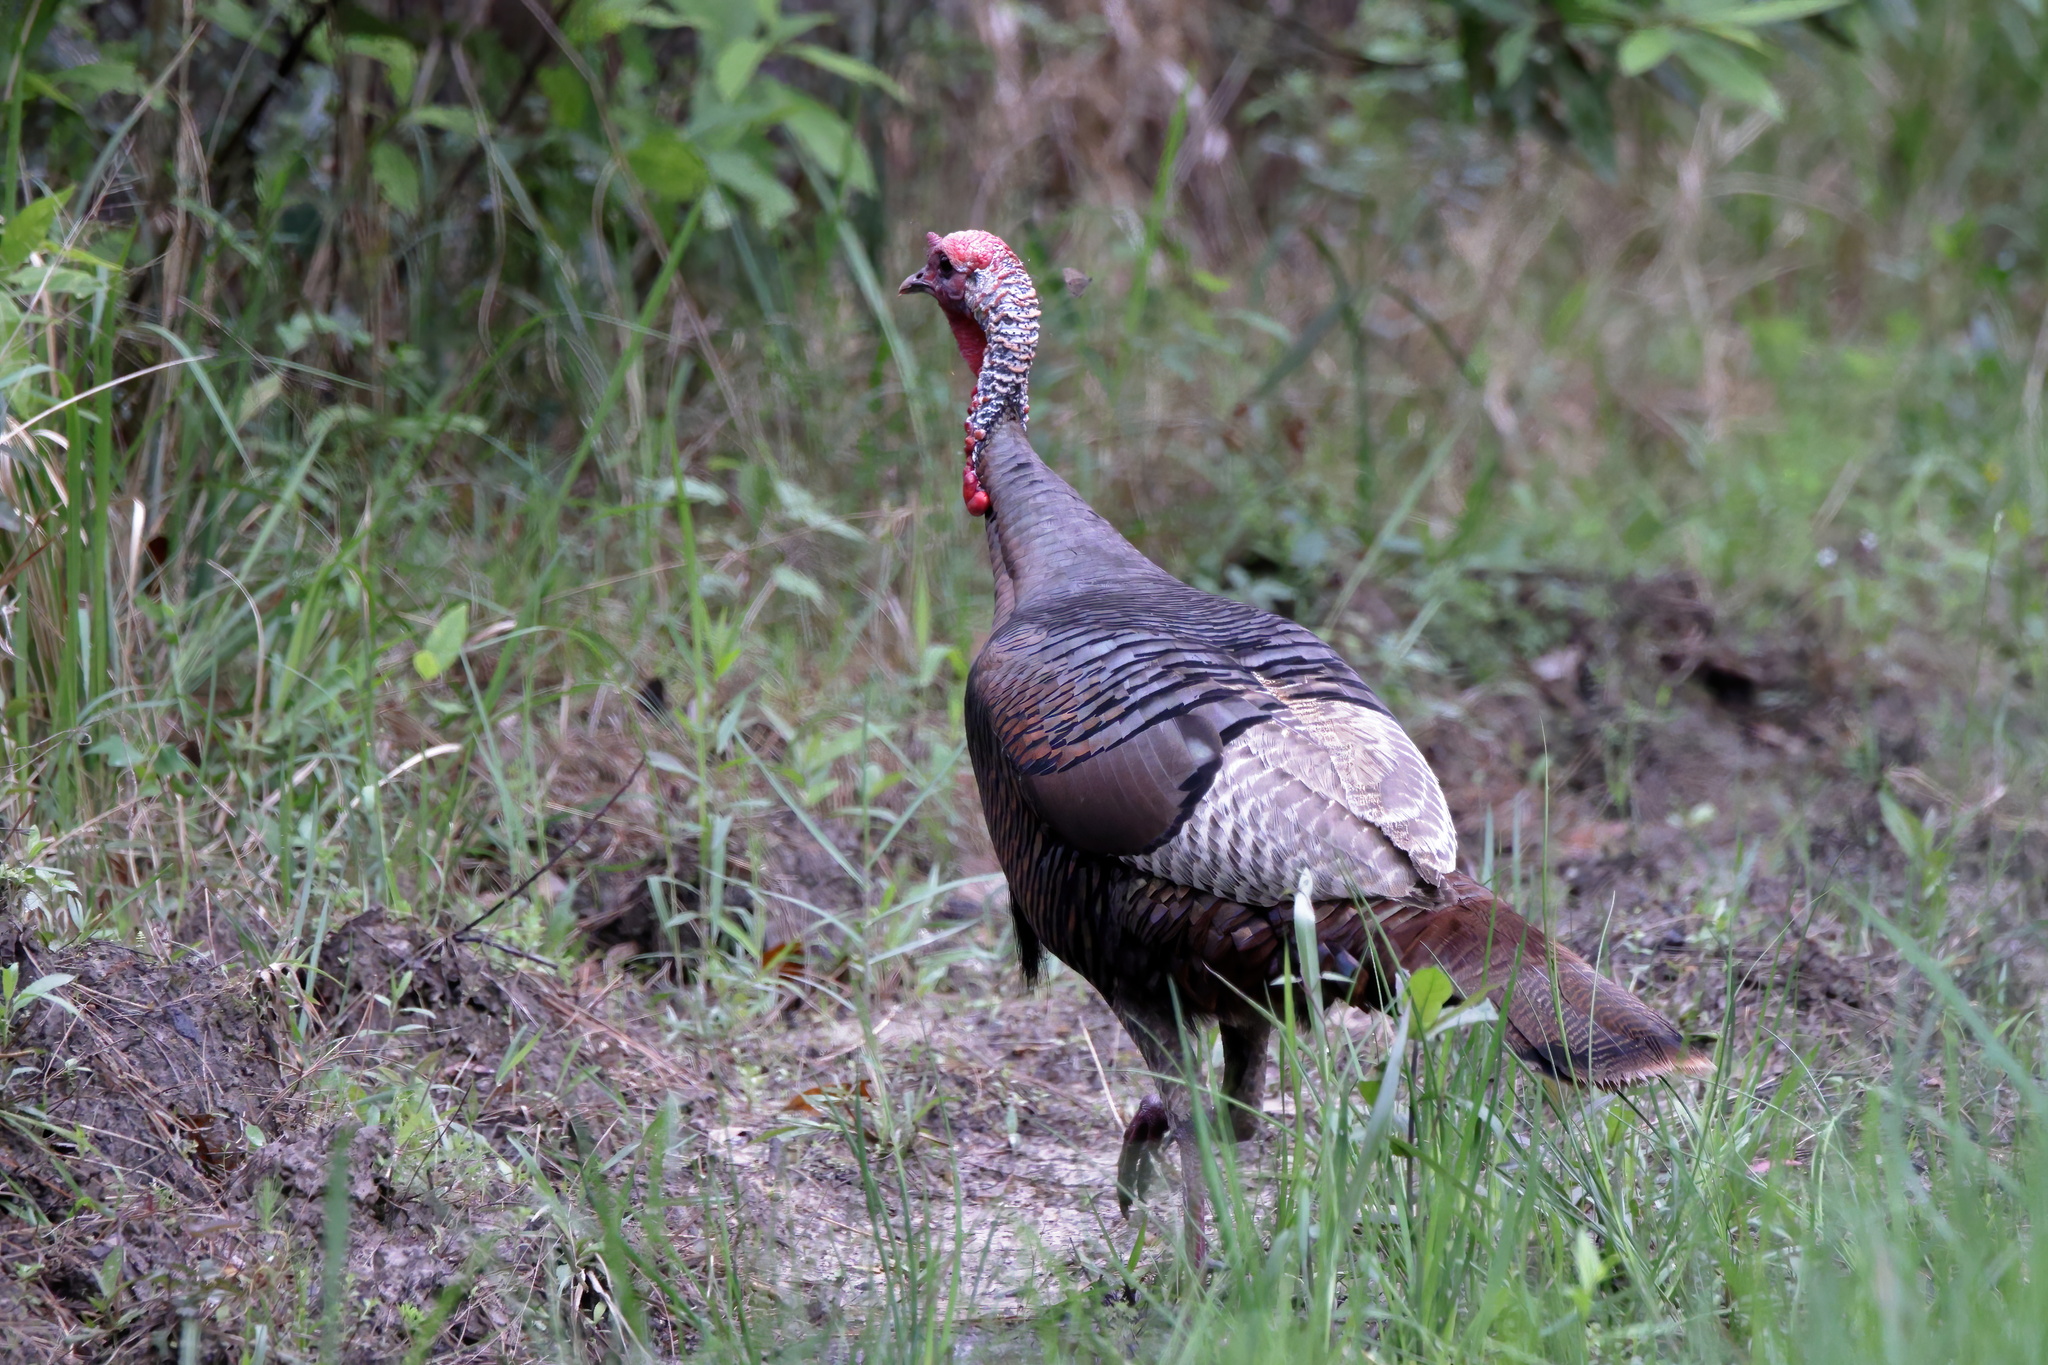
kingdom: Animalia
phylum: Chordata
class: Aves
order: Galliformes
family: Phasianidae
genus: Meleagris
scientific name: Meleagris gallopavo
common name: Wild turkey
